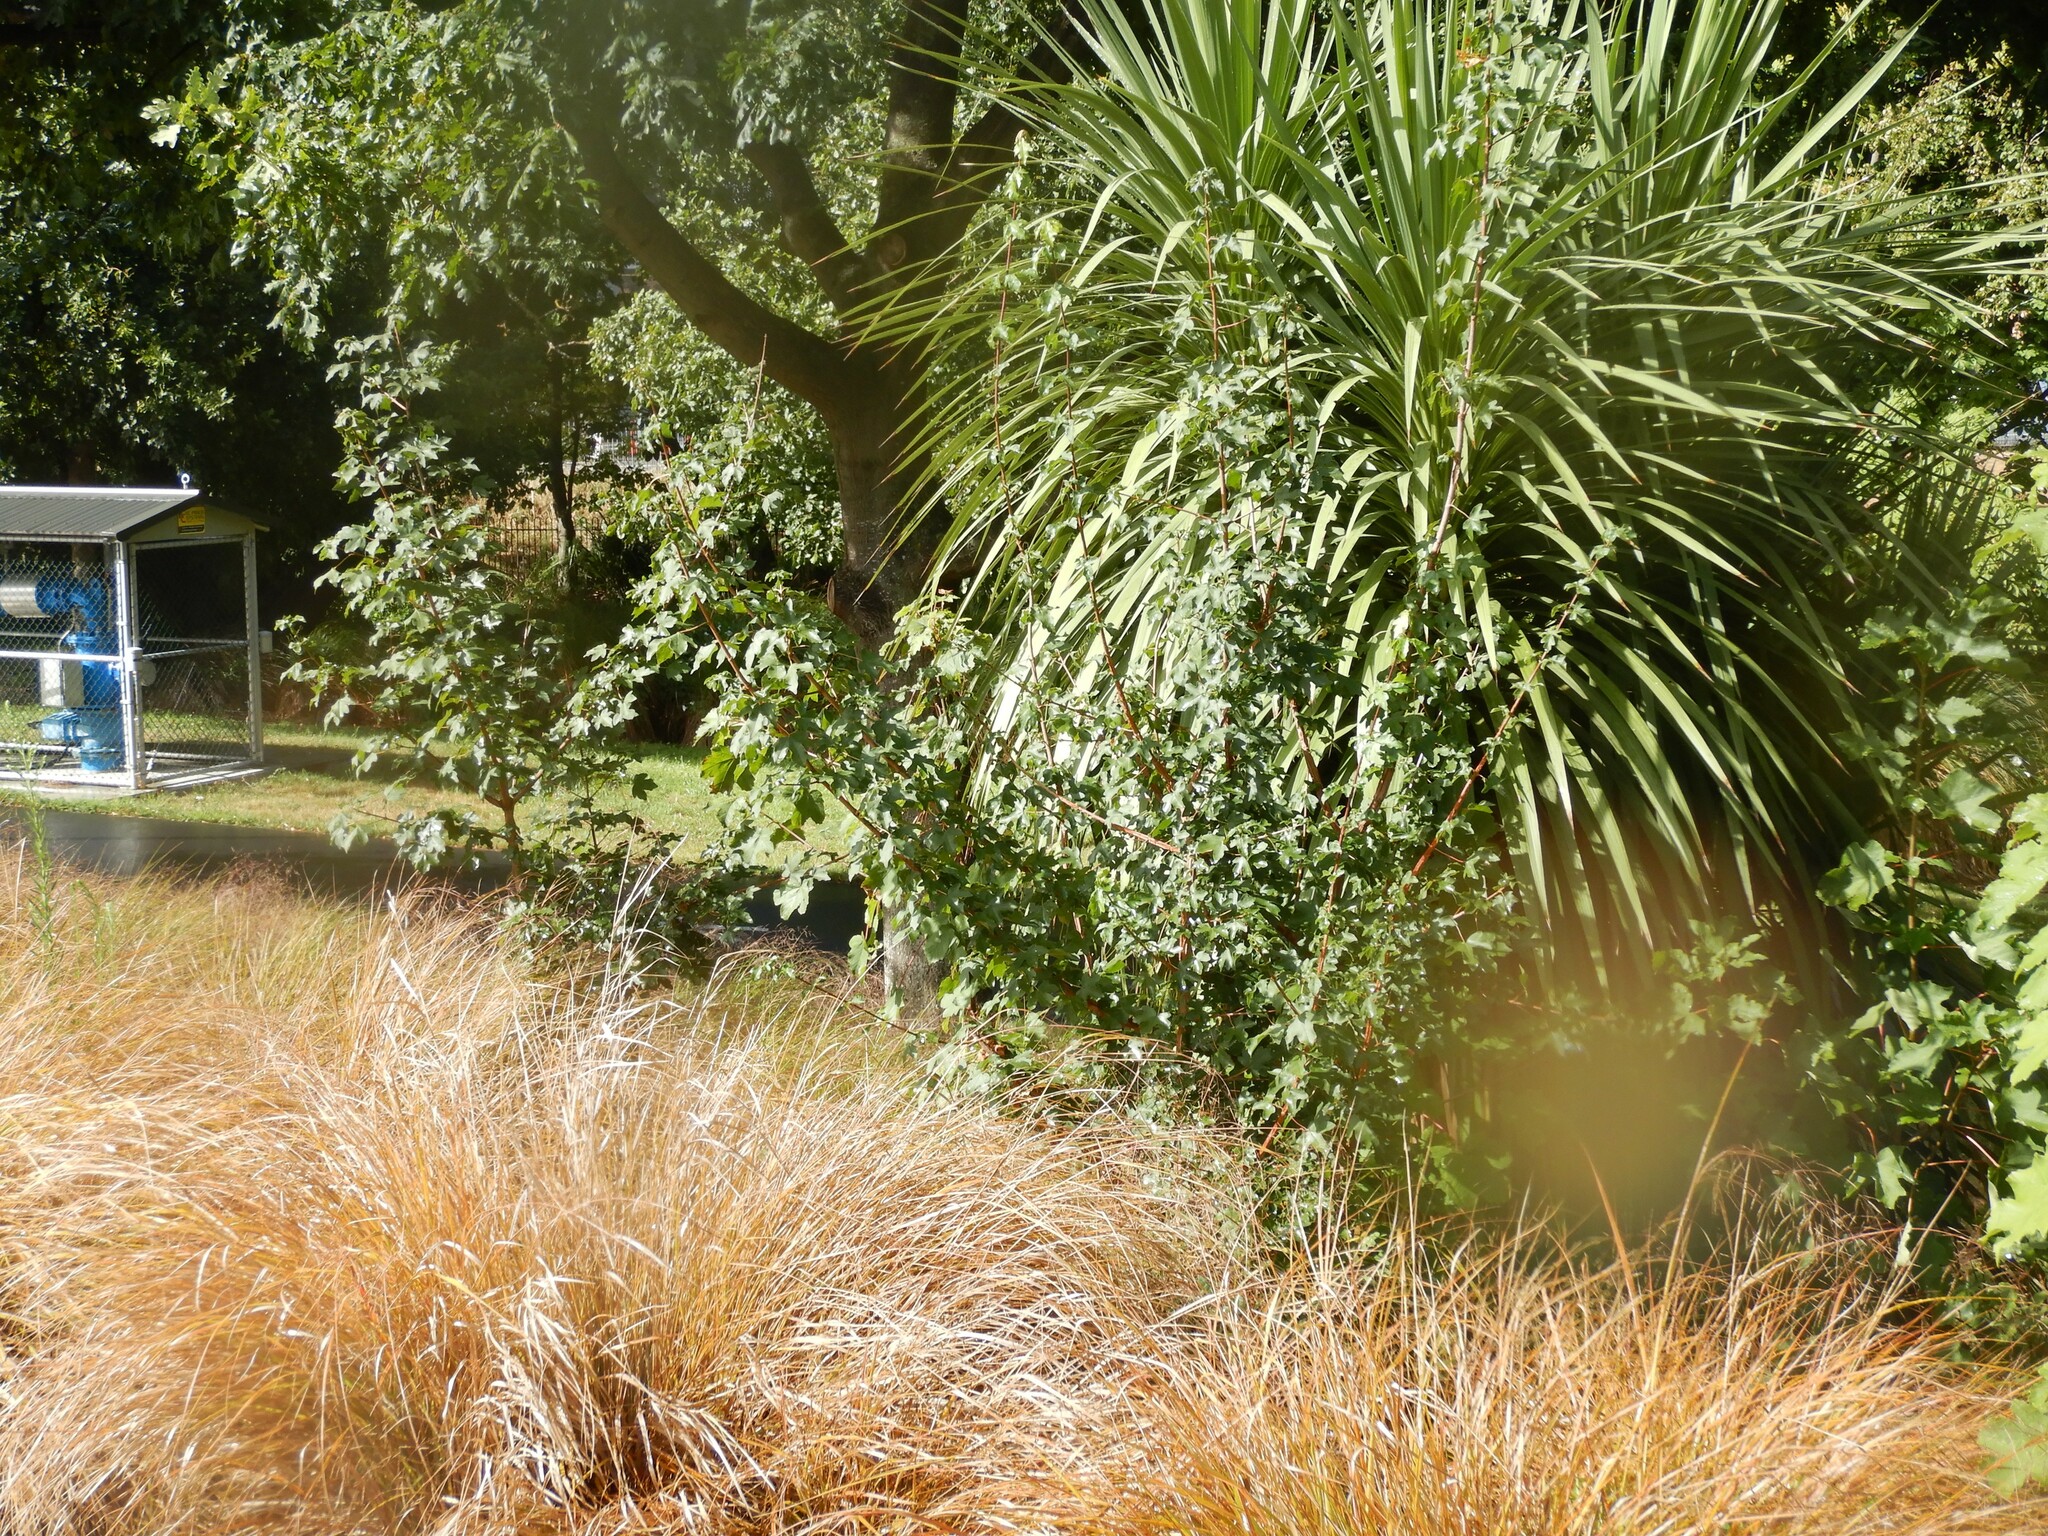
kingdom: Plantae
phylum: Tracheophyta
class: Magnoliopsida
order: Sapindales
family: Sapindaceae
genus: Acer
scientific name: Acer campestre
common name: Field maple
